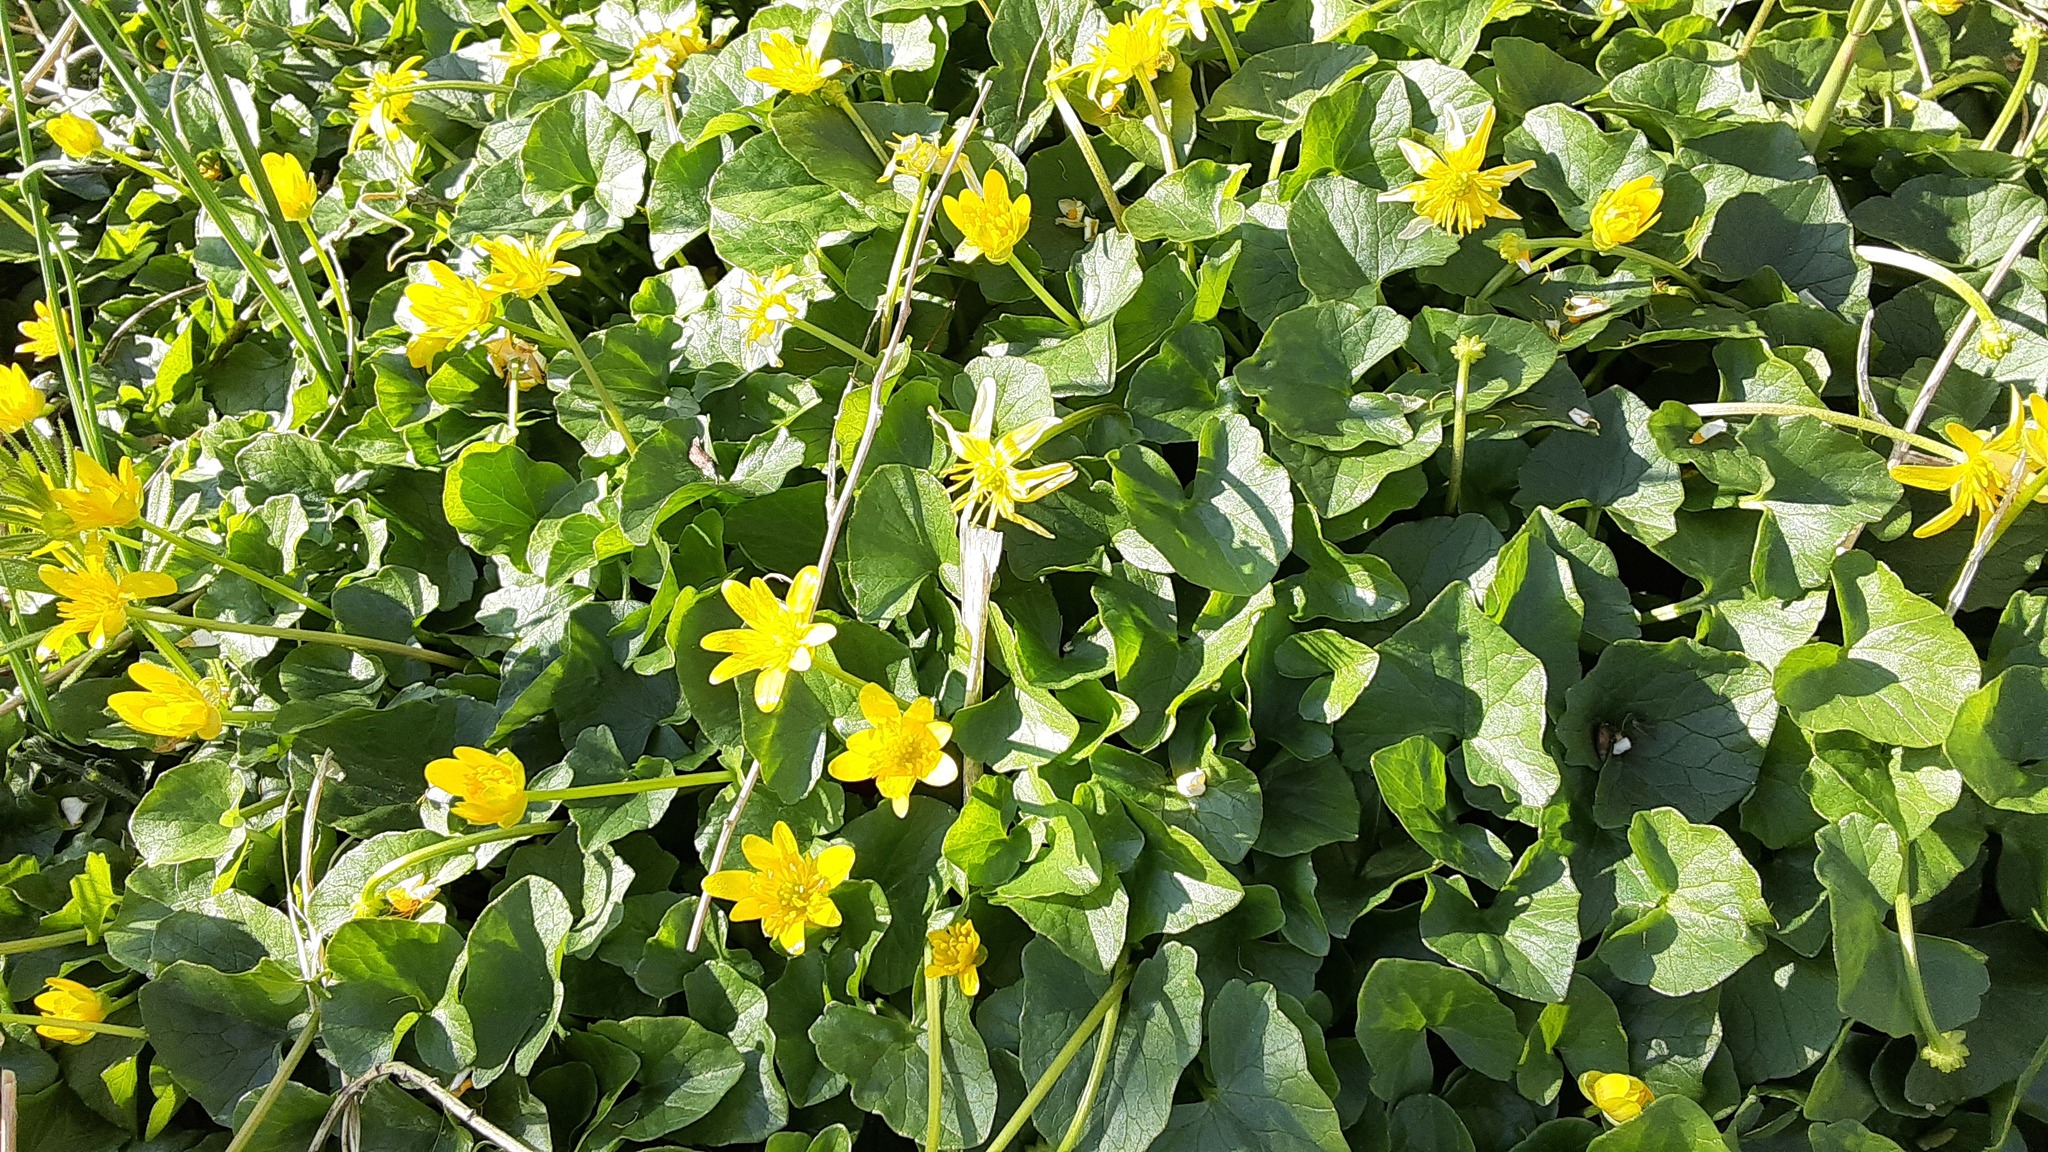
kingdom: Plantae
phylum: Tracheophyta
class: Magnoliopsida
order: Ranunculales
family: Ranunculaceae
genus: Ficaria
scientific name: Ficaria verna
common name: Lesser celandine
